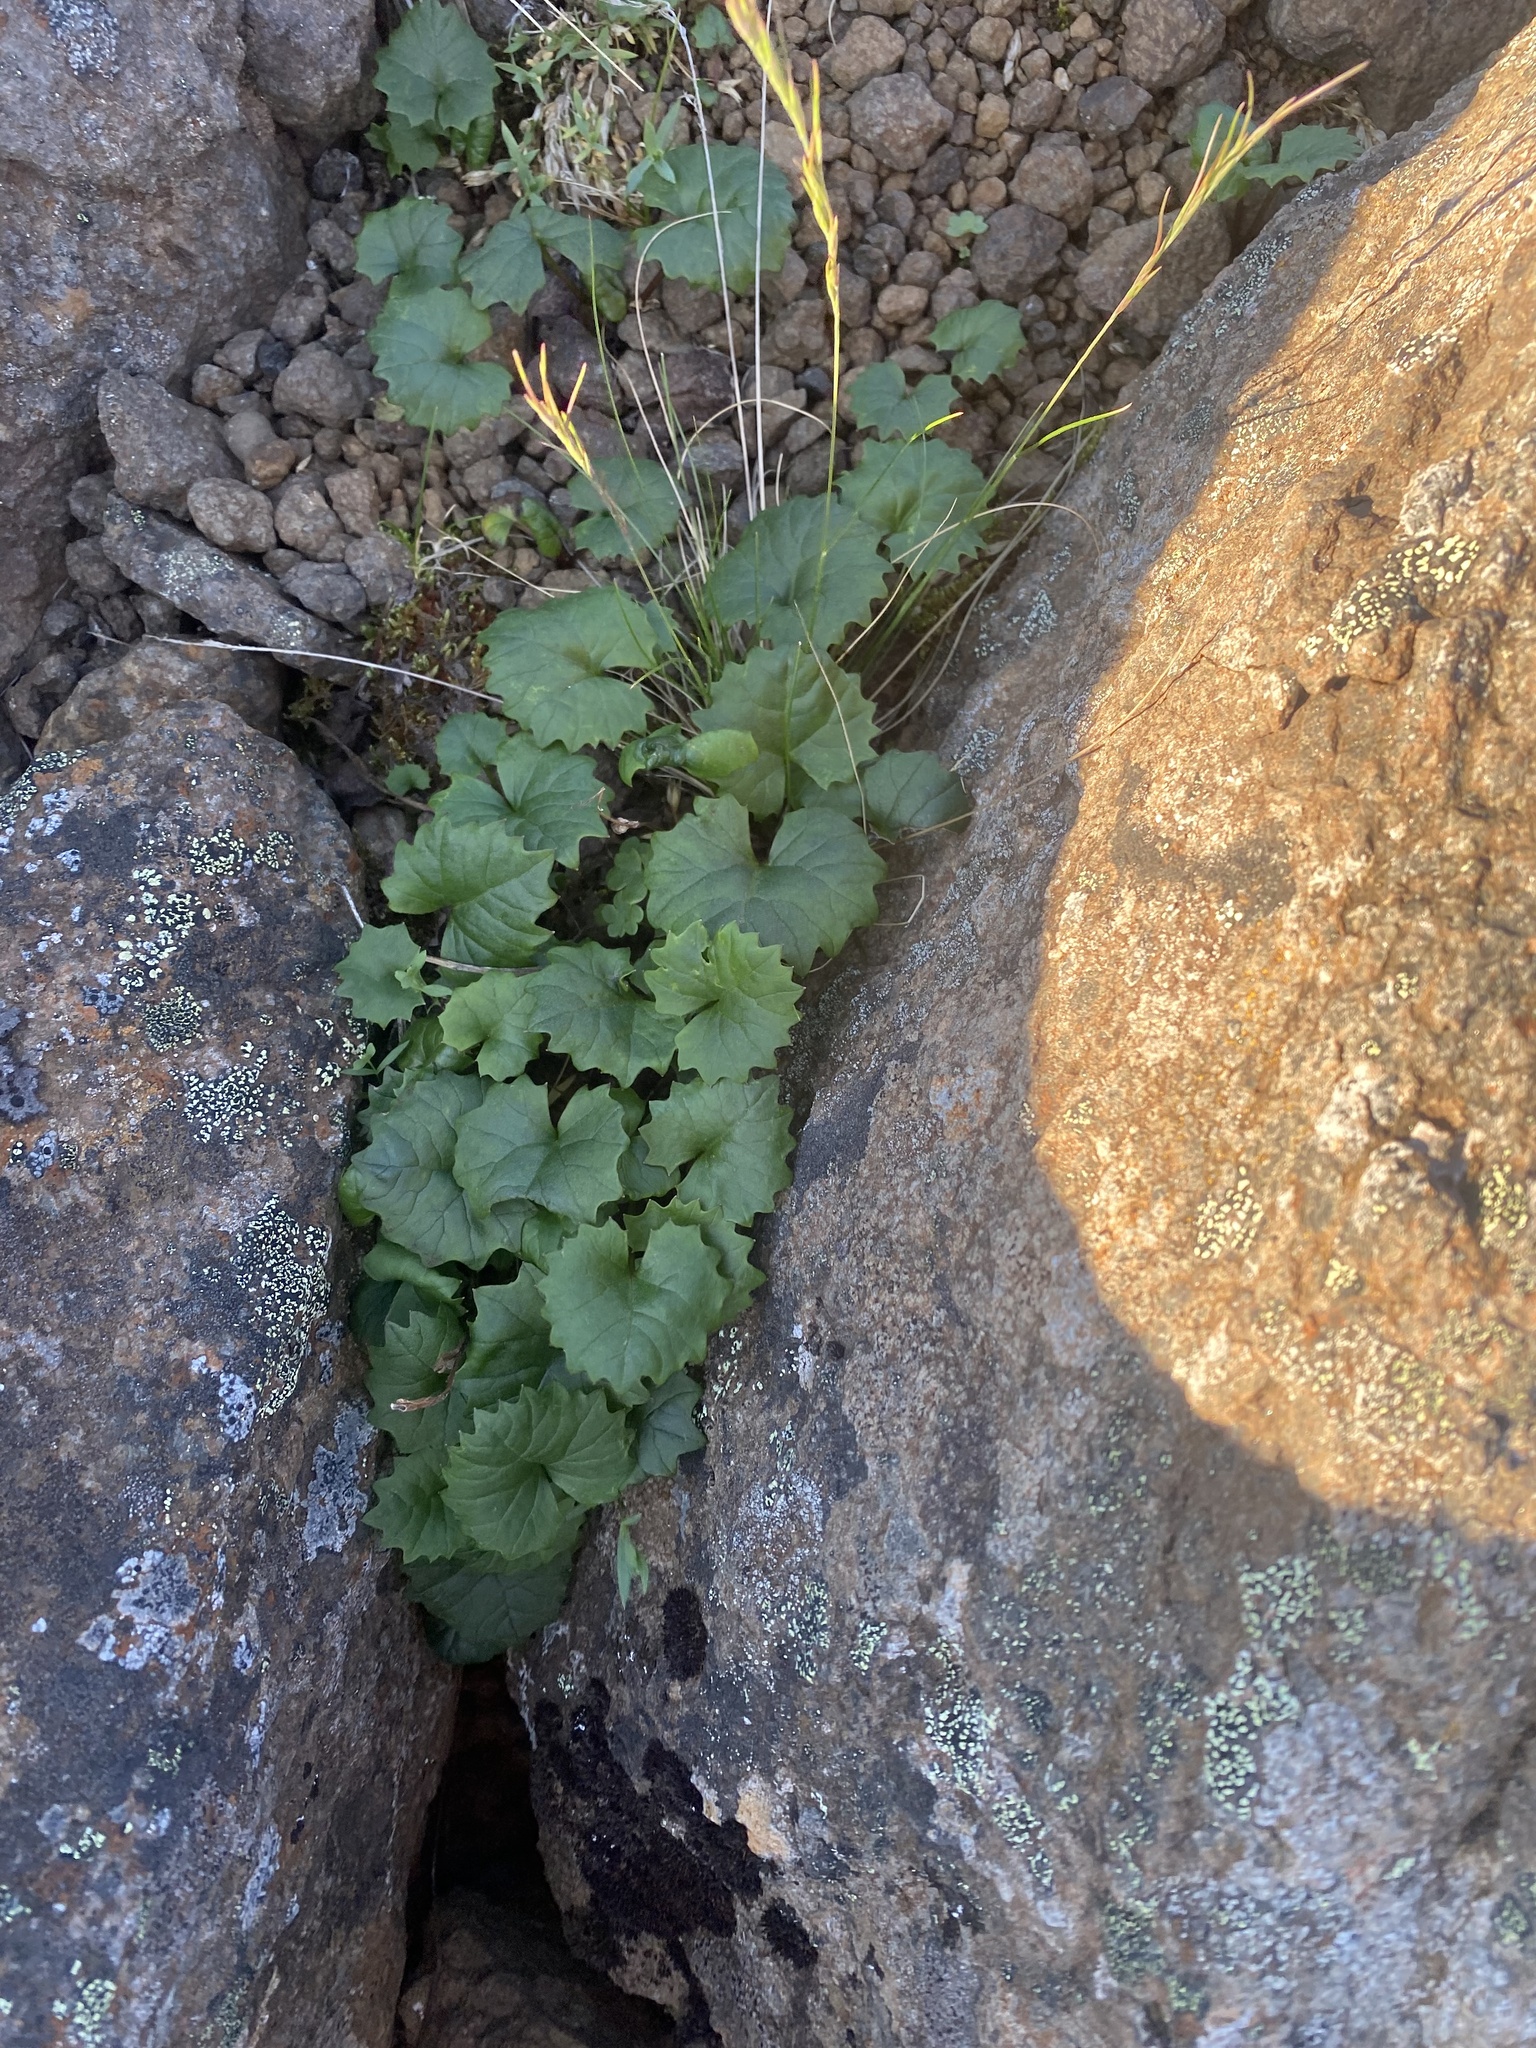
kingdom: Plantae
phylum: Tracheophyta
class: Magnoliopsida
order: Asterales
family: Asteraceae
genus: Endocellion
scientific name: Endocellion glaciale
